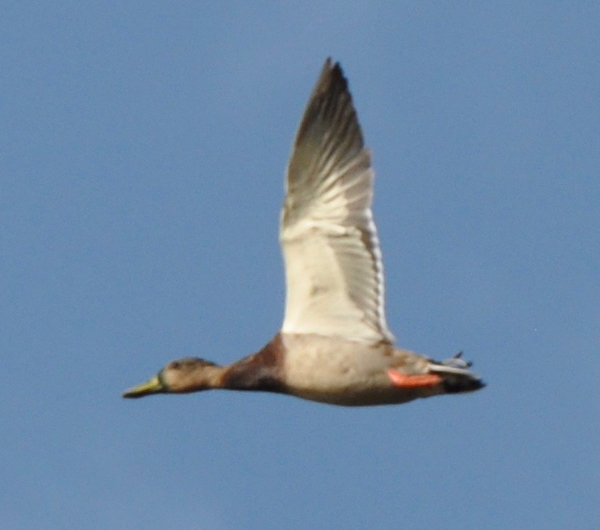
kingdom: Animalia
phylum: Chordata
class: Aves
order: Anseriformes
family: Anatidae
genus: Anas
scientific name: Anas platyrhynchos
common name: Mallard
